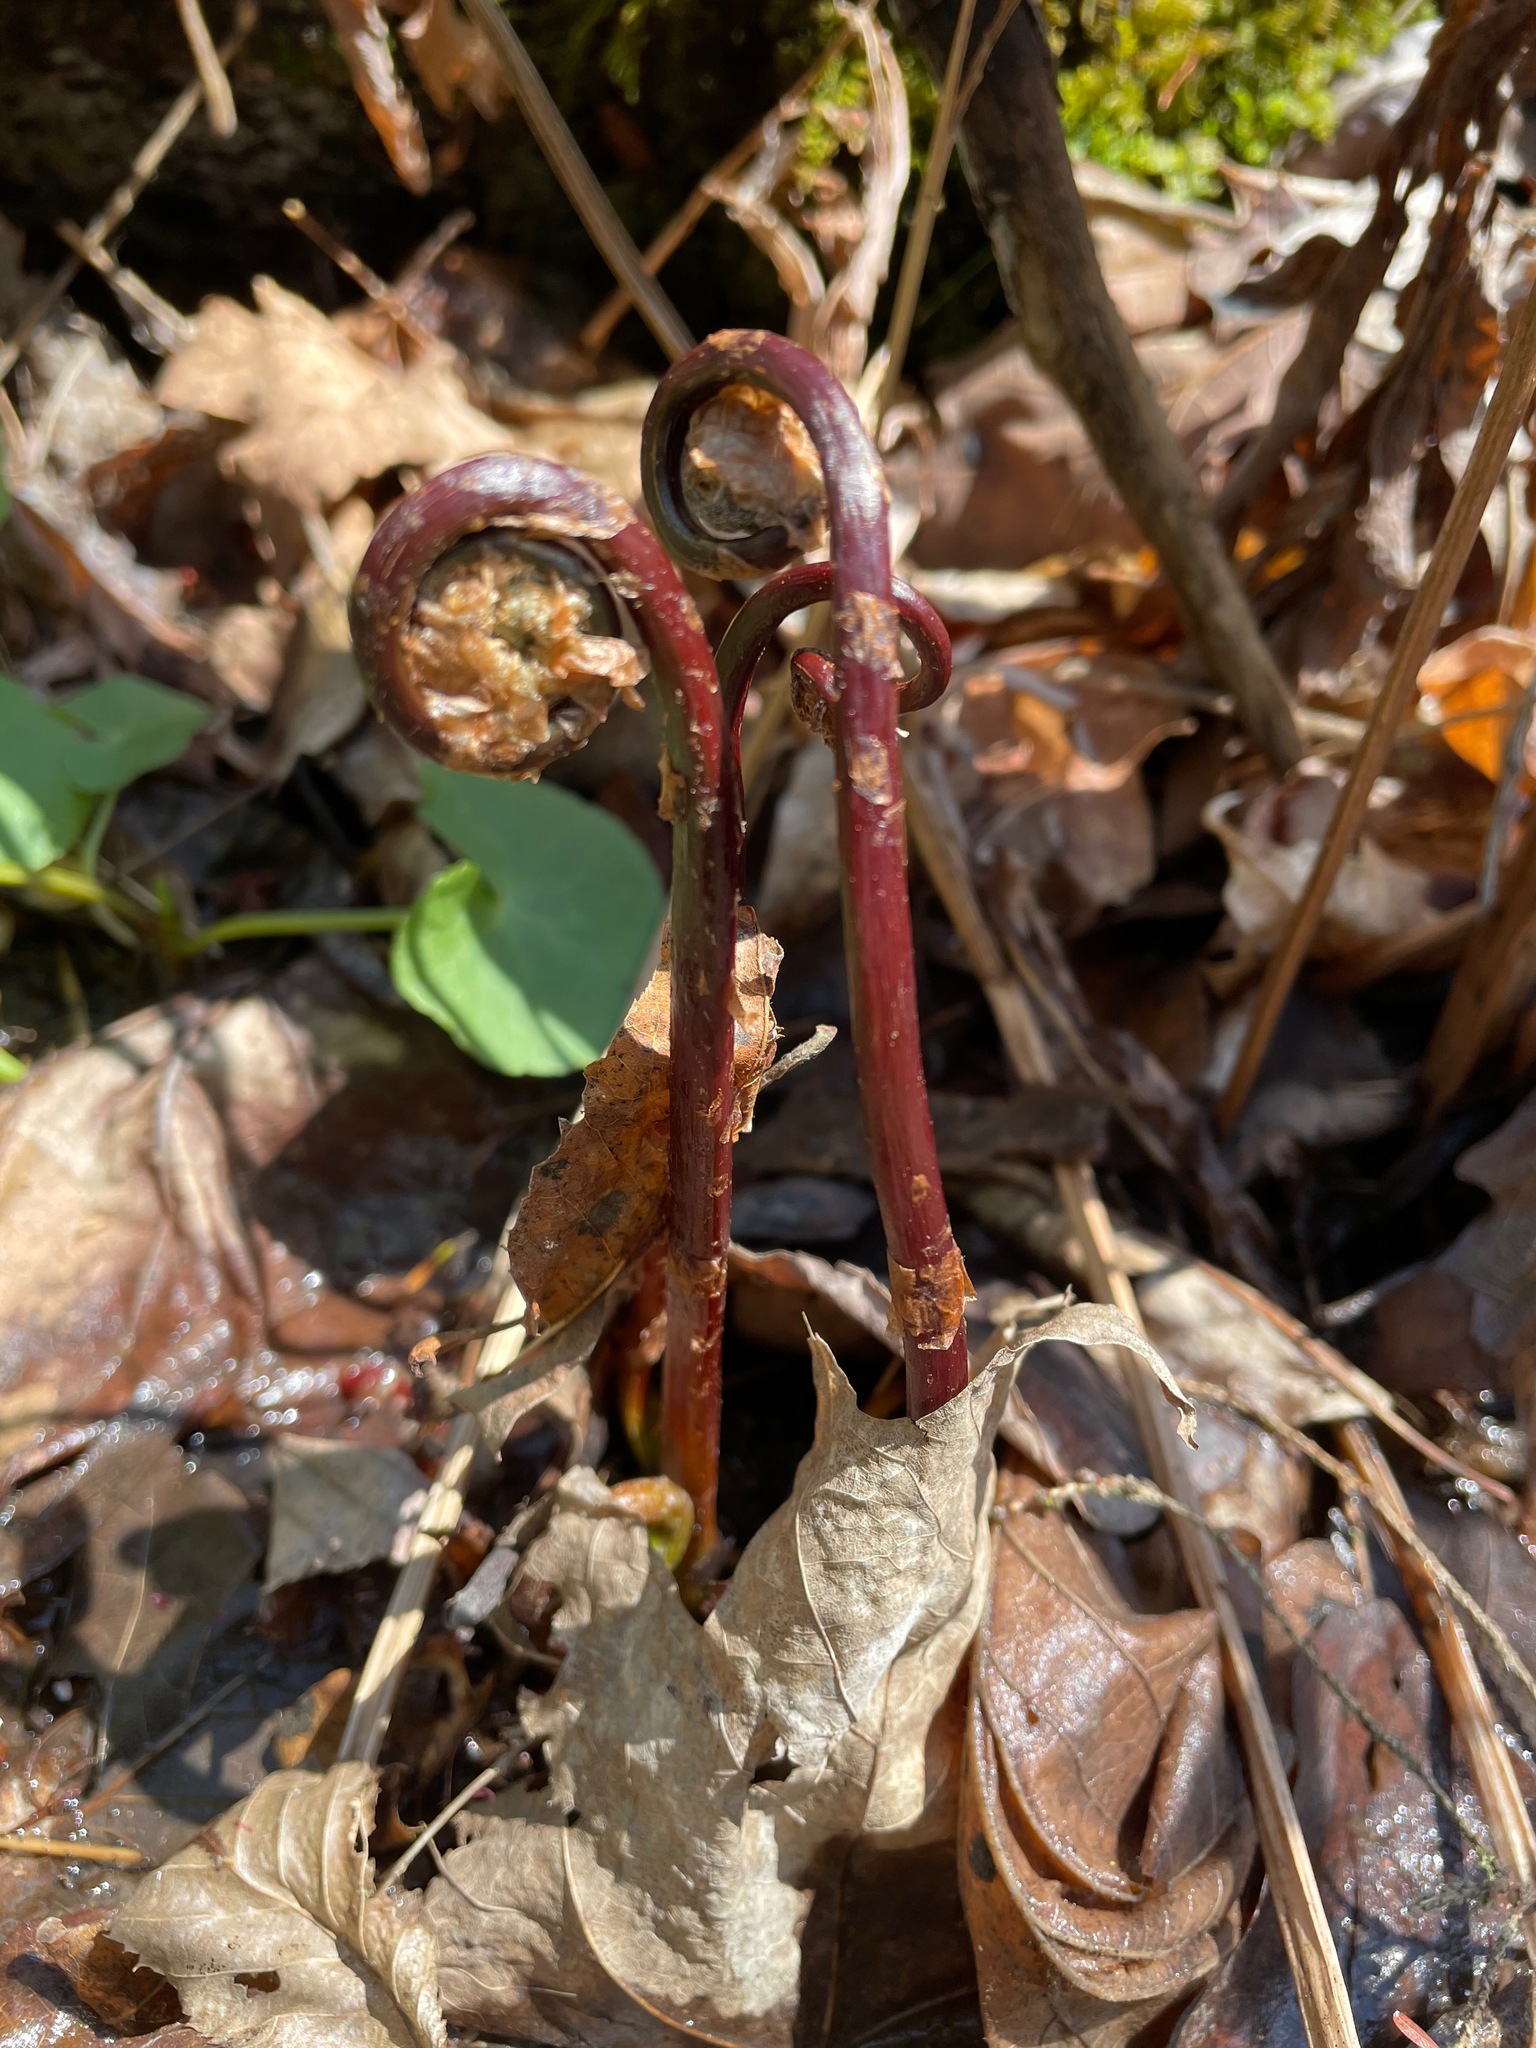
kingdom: Plantae
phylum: Tracheophyta
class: Polypodiopsida
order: Polypodiales
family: Onocleaceae
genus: Onoclea
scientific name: Onoclea sensibilis
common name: Sensitive fern
